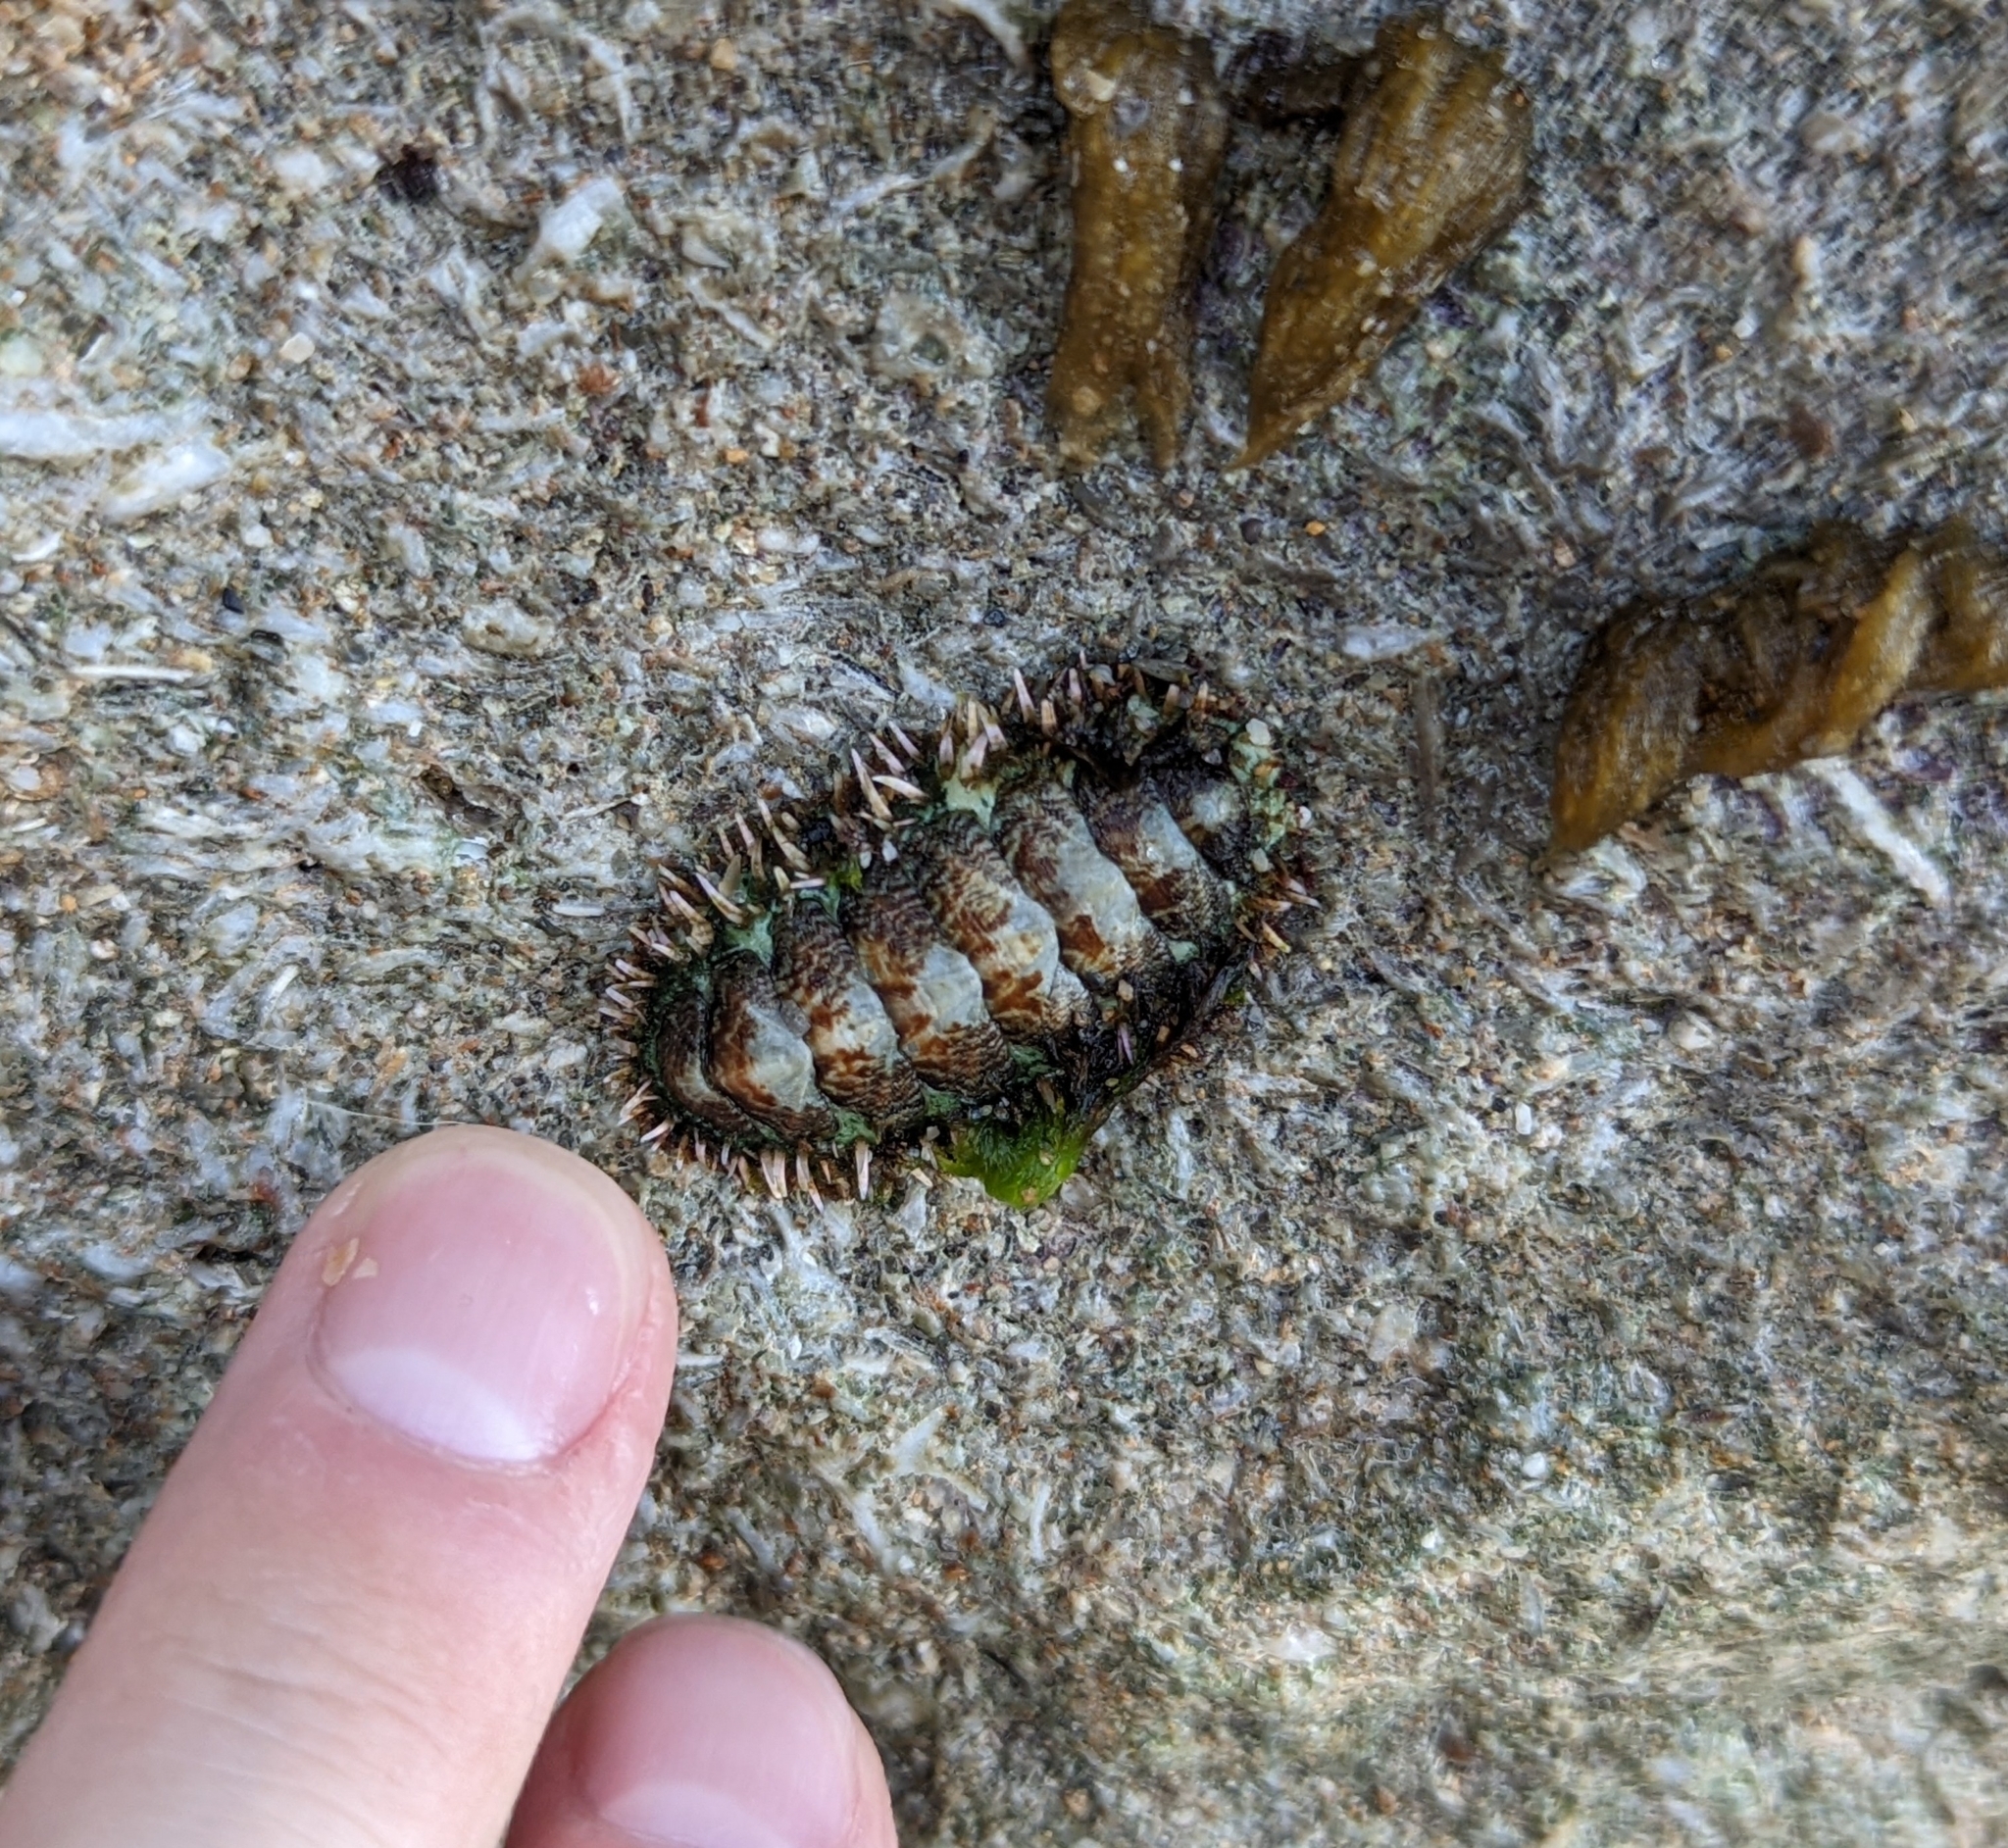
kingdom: Animalia
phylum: Mollusca
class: Polyplacophora
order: Chitonida
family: Tonicellidae
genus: Ceratozona
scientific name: Ceratozona squalida
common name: Rough-girdled chiton
